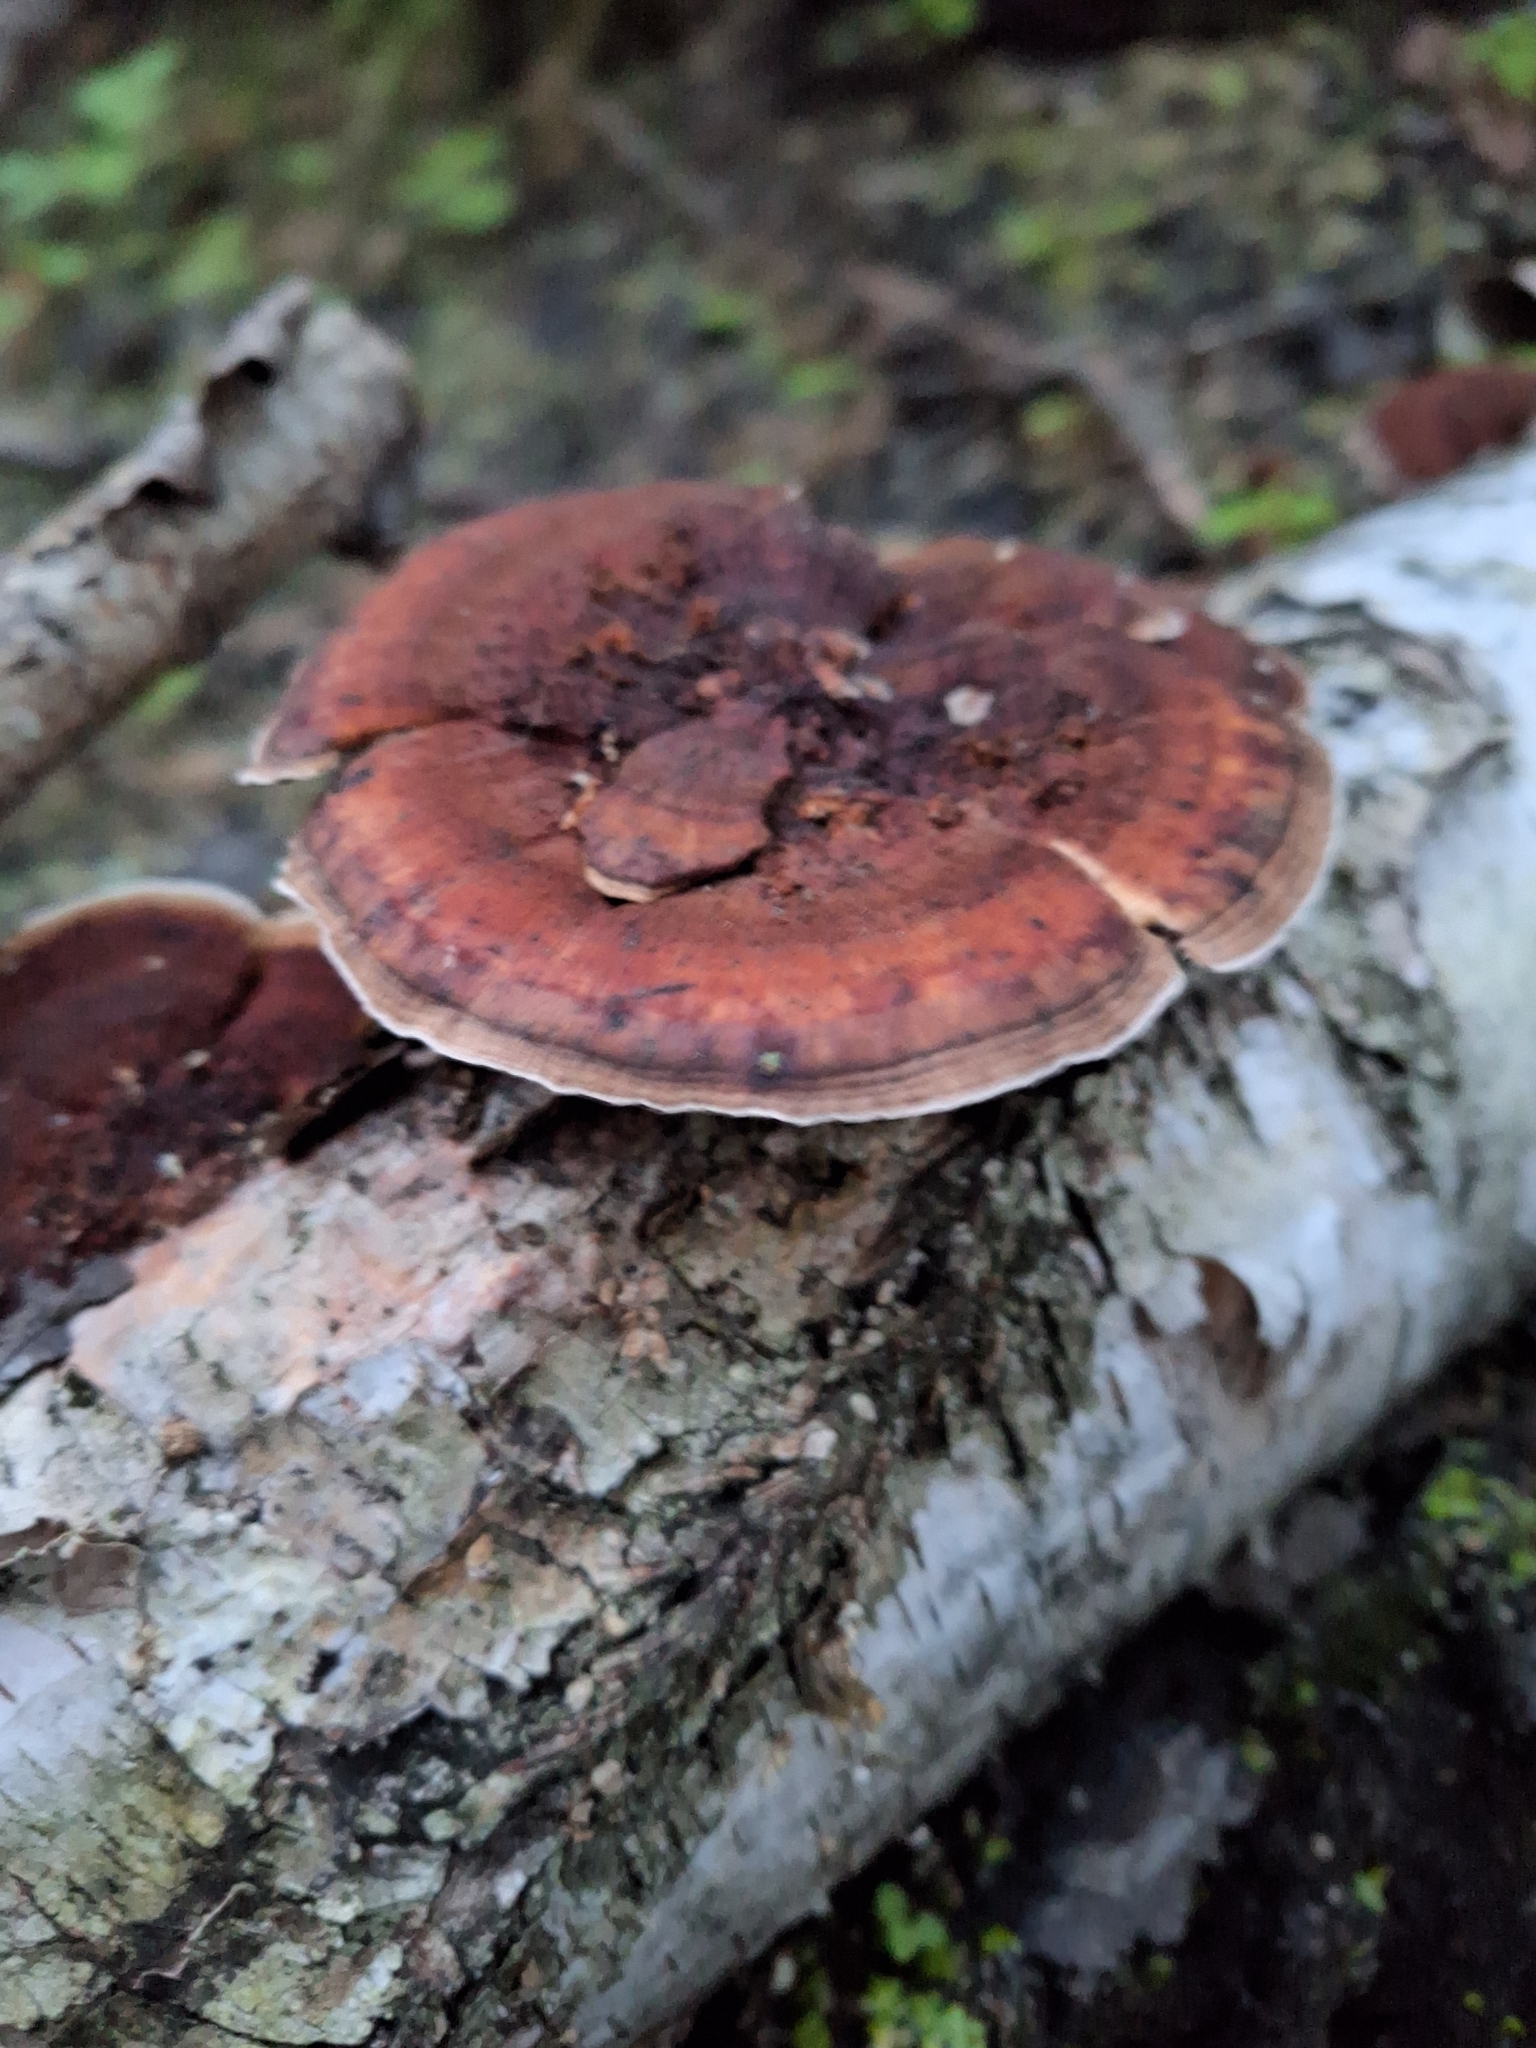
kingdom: Fungi
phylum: Basidiomycota
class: Agaricomycetes
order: Polyporales
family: Polyporaceae
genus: Daedaleopsis
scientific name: Daedaleopsis confragosa
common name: Blushing bracket
